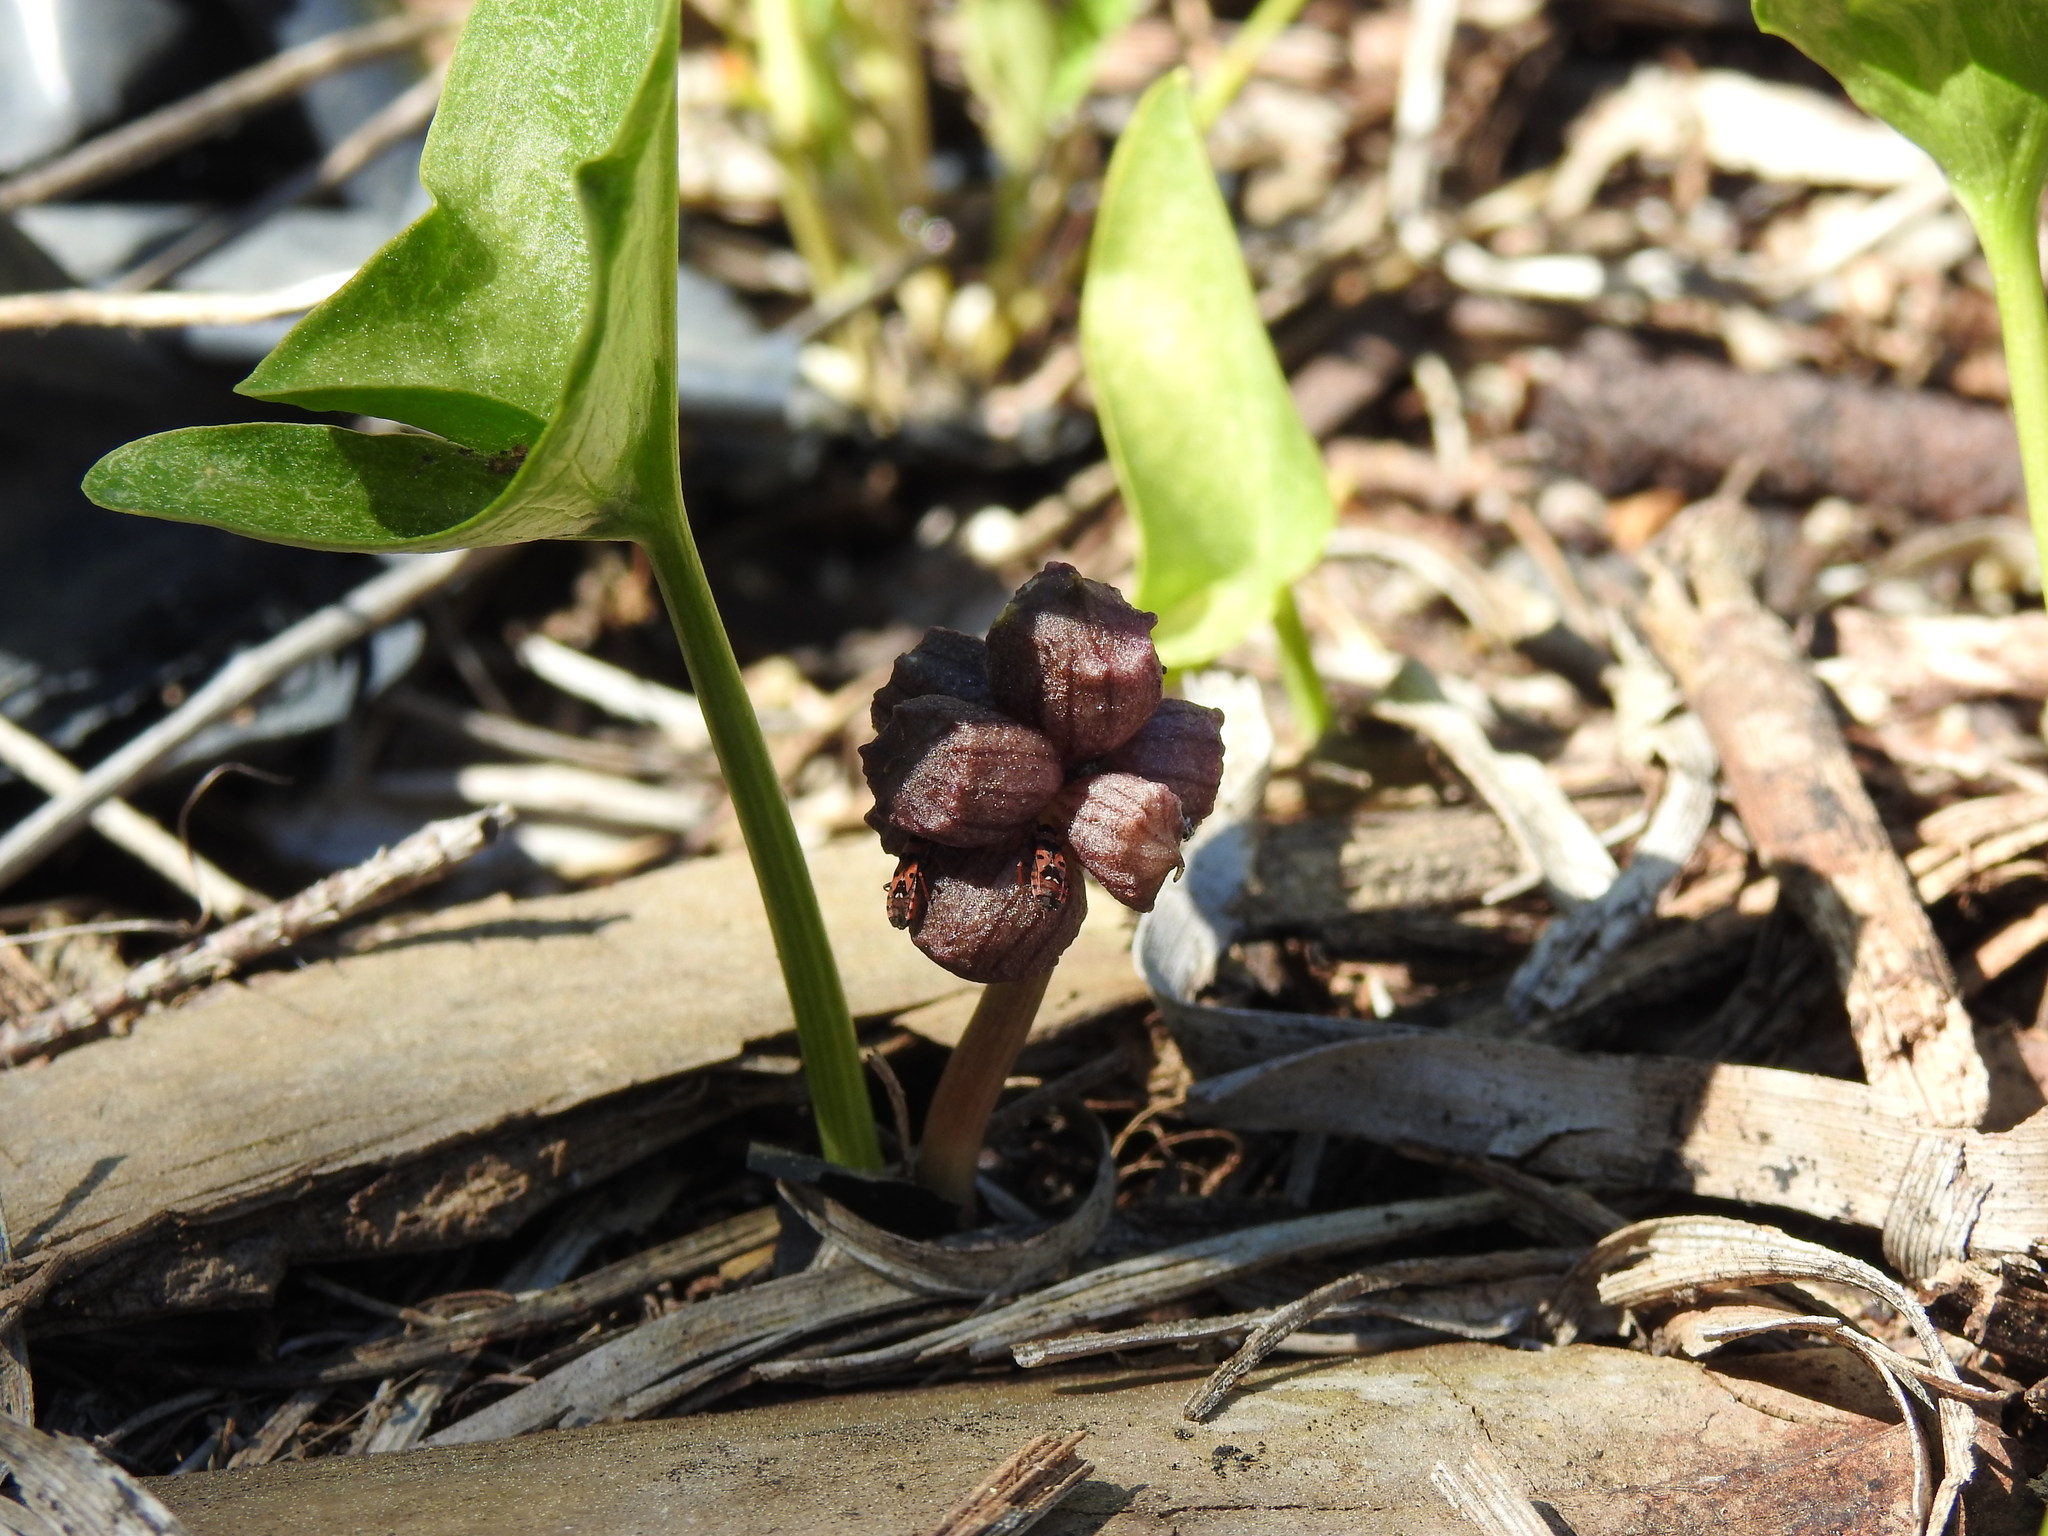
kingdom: Plantae
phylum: Tracheophyta
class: Liliopsida
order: Alismatales
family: Araceae
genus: Arisarum
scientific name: Arisarum simorrhinum
